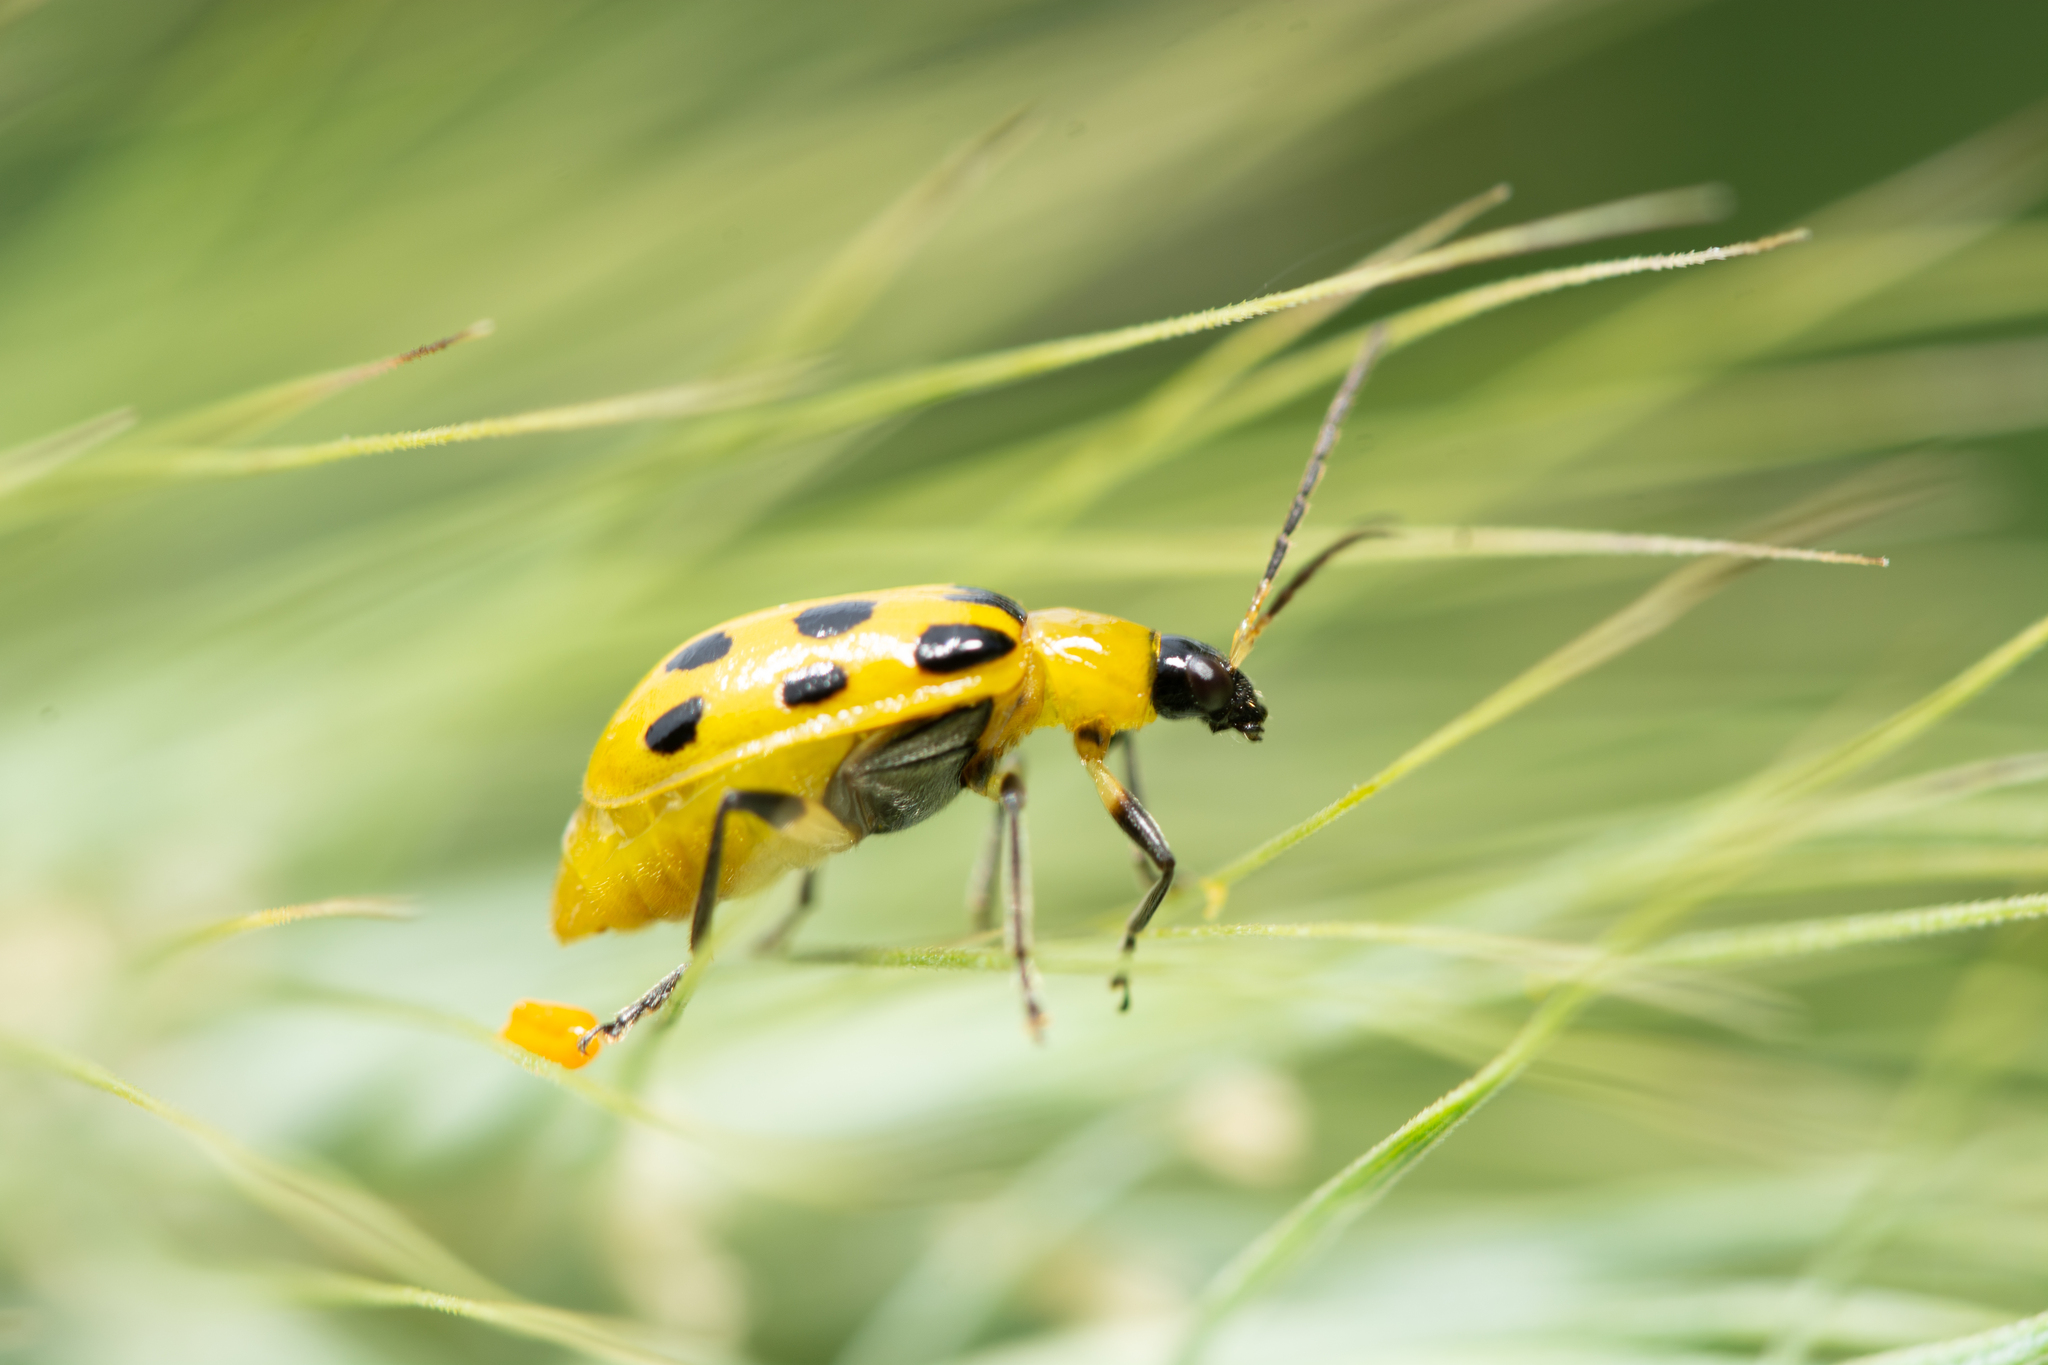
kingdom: Animalia
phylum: Arthropoda
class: Insecta
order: Coleoptera
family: Chrysomelidae
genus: Diabrotica
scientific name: Diabrotica undecimpunctata
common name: Spotted cucumber beetle
